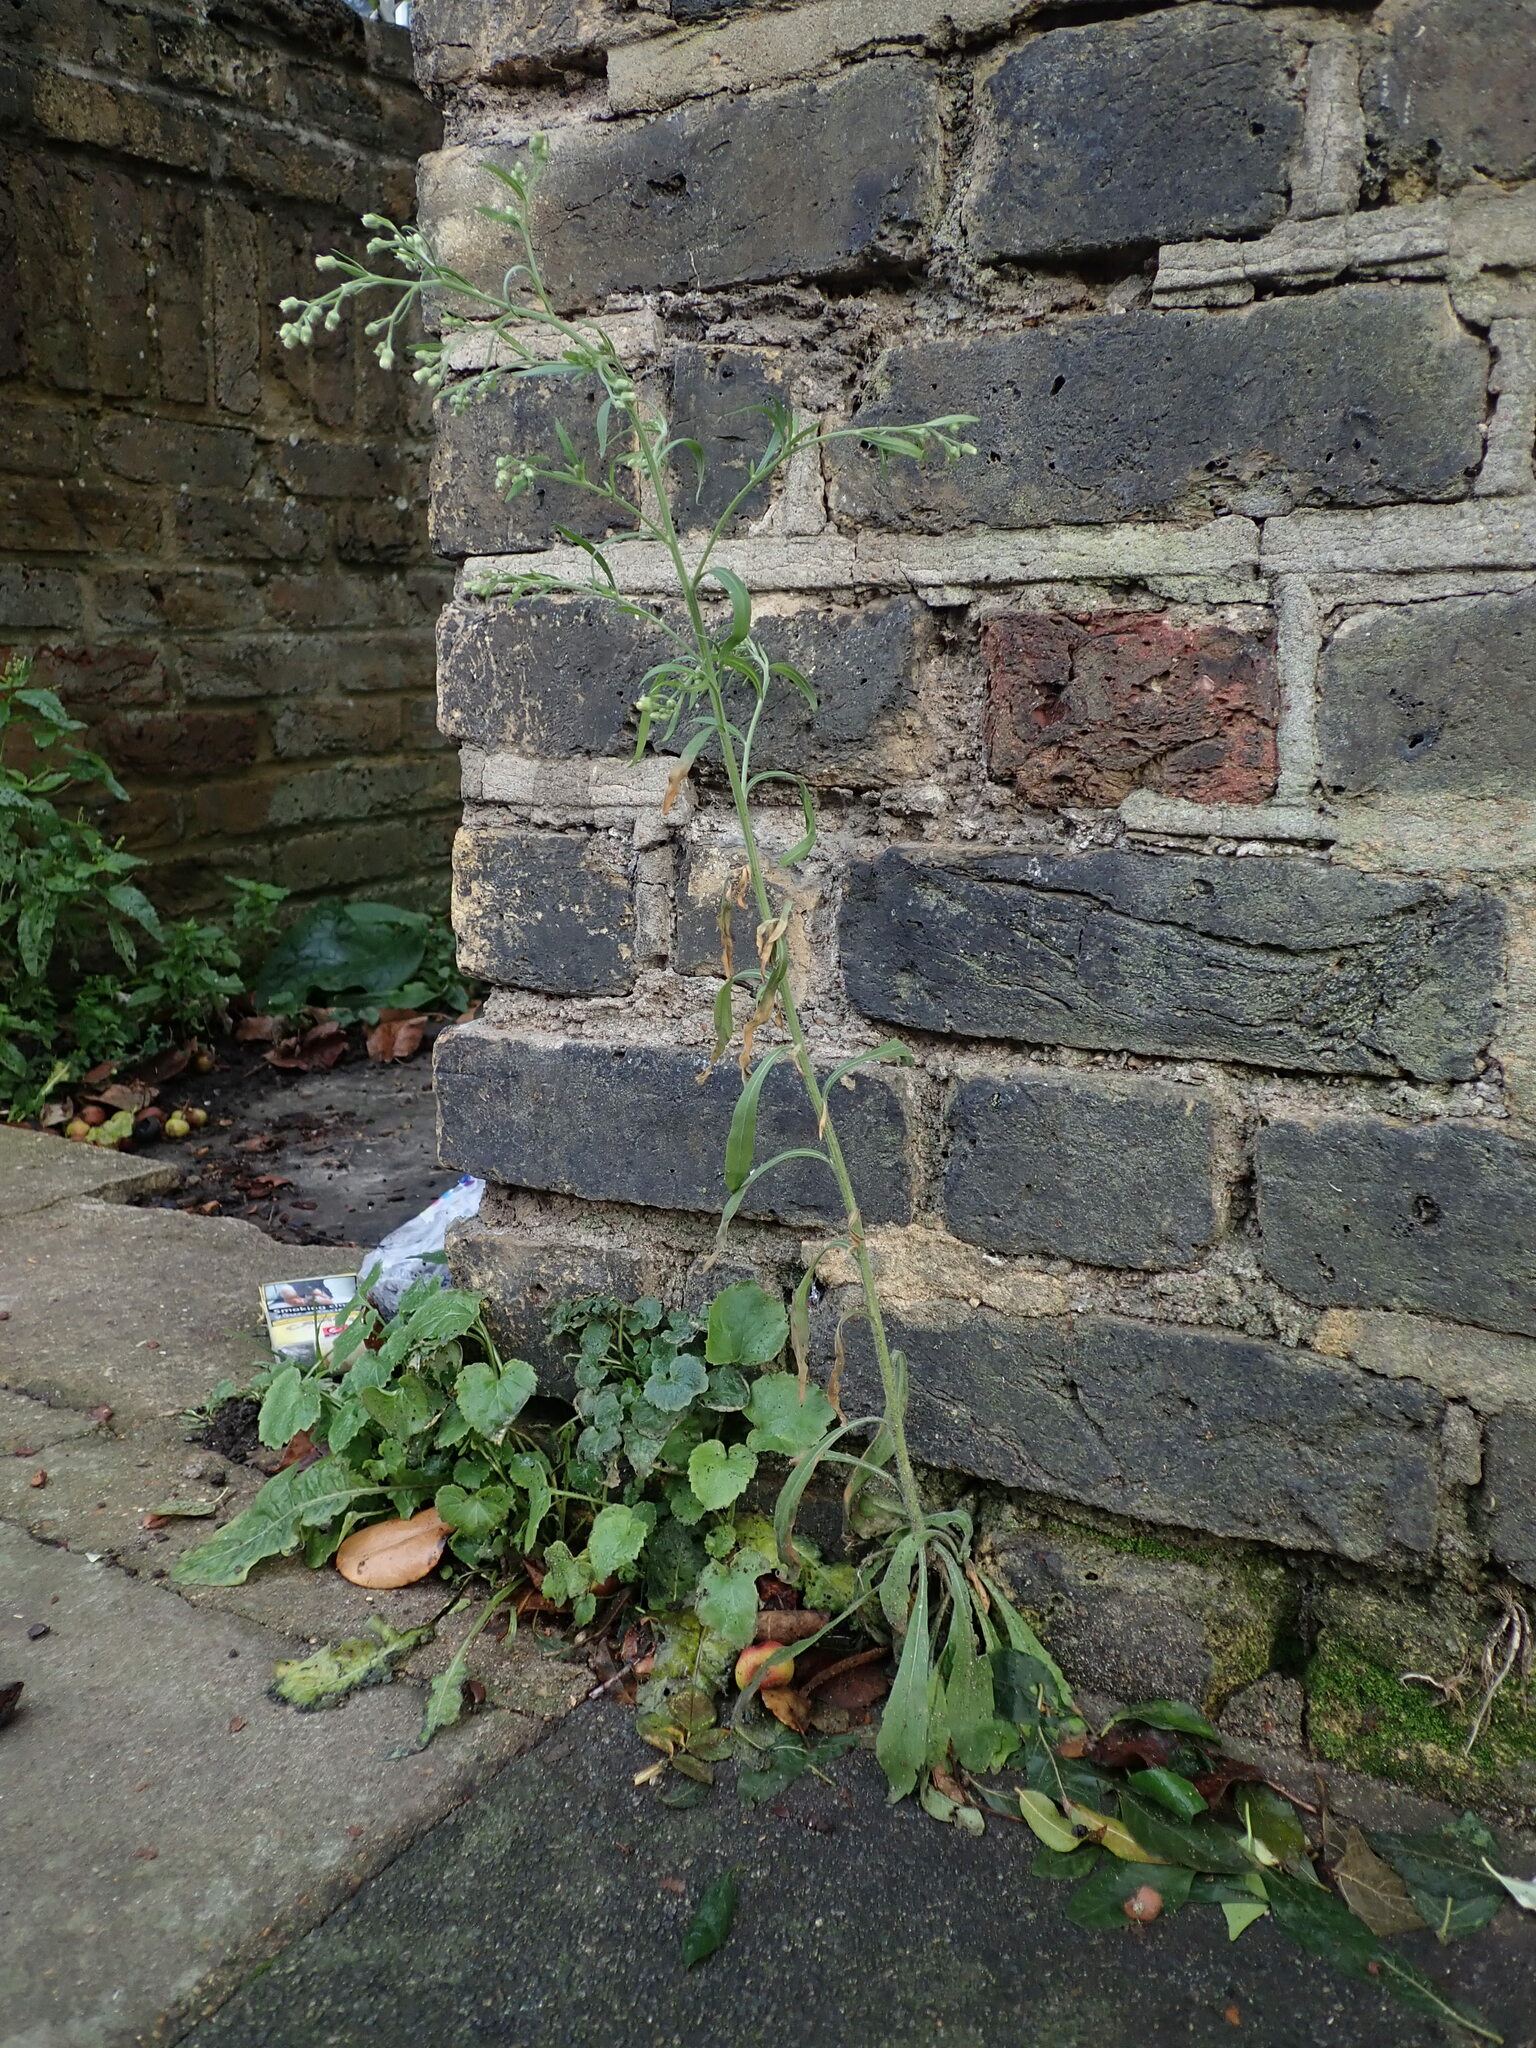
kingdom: Plantae
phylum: Tracheophyta
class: Magnoliopsida
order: Asterales
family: Asteraceae
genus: Erigeron
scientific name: Erigeron sumatrensis
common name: Daisy
